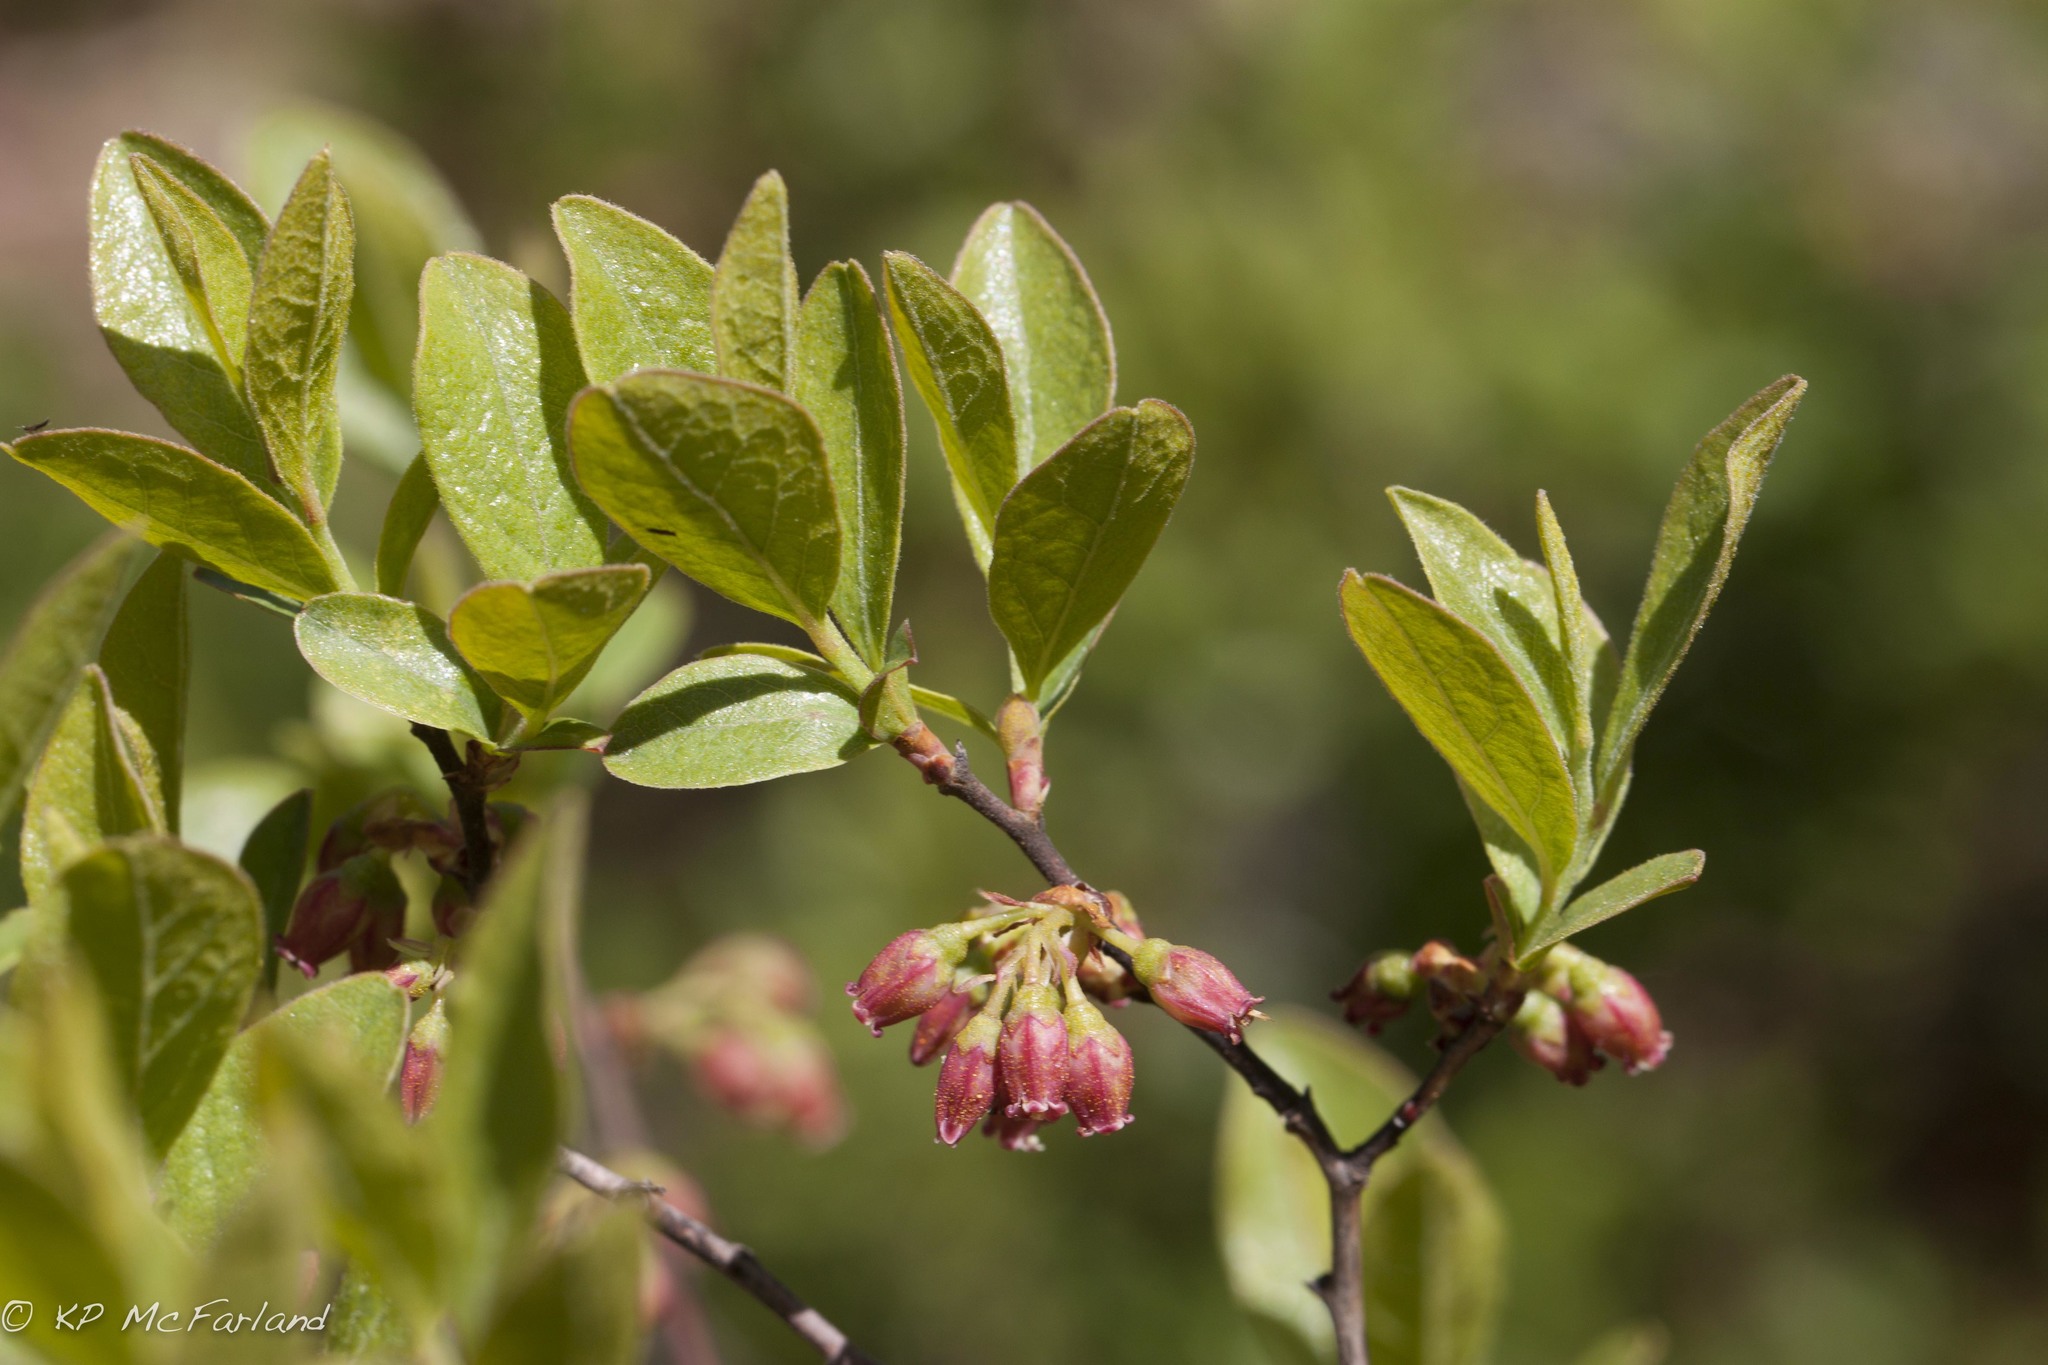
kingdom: Plantae
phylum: Tracheophyta
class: Magnoliopsida
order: Ericales
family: Ericaceae
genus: Gaylussacia
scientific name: Gaylussacia baccata
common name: Black huckleberry
